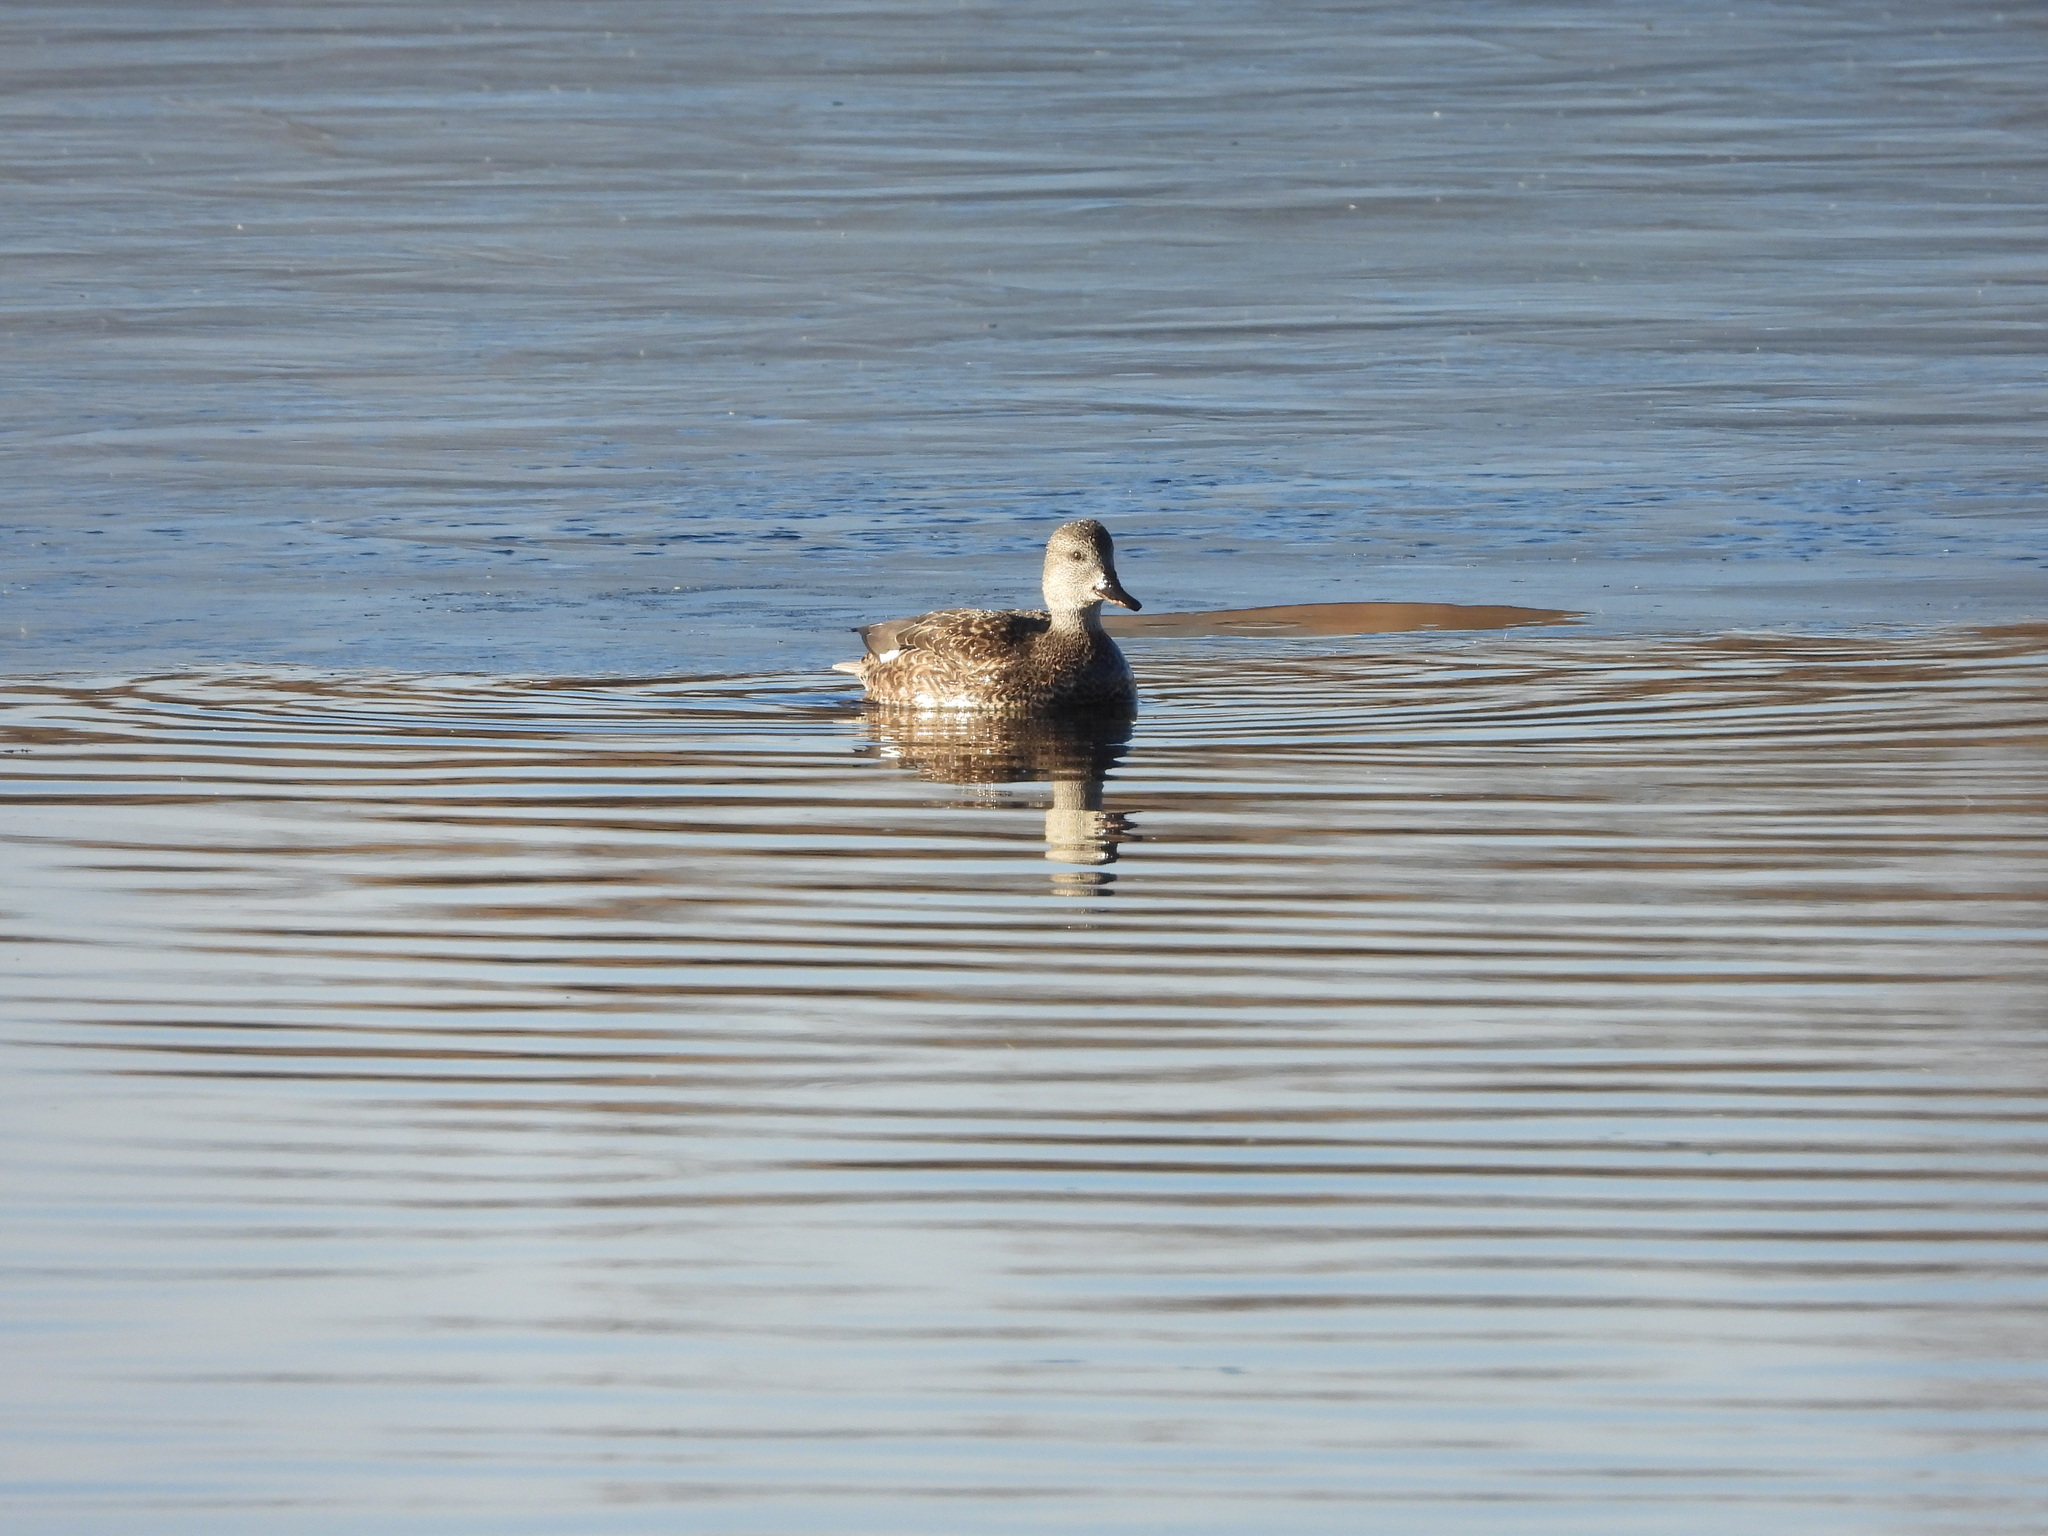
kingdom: Animalia
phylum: Chordata
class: Aves
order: Anseriformes
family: Anatidae
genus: Mareca
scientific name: Mareca strepera
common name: Gadwall
